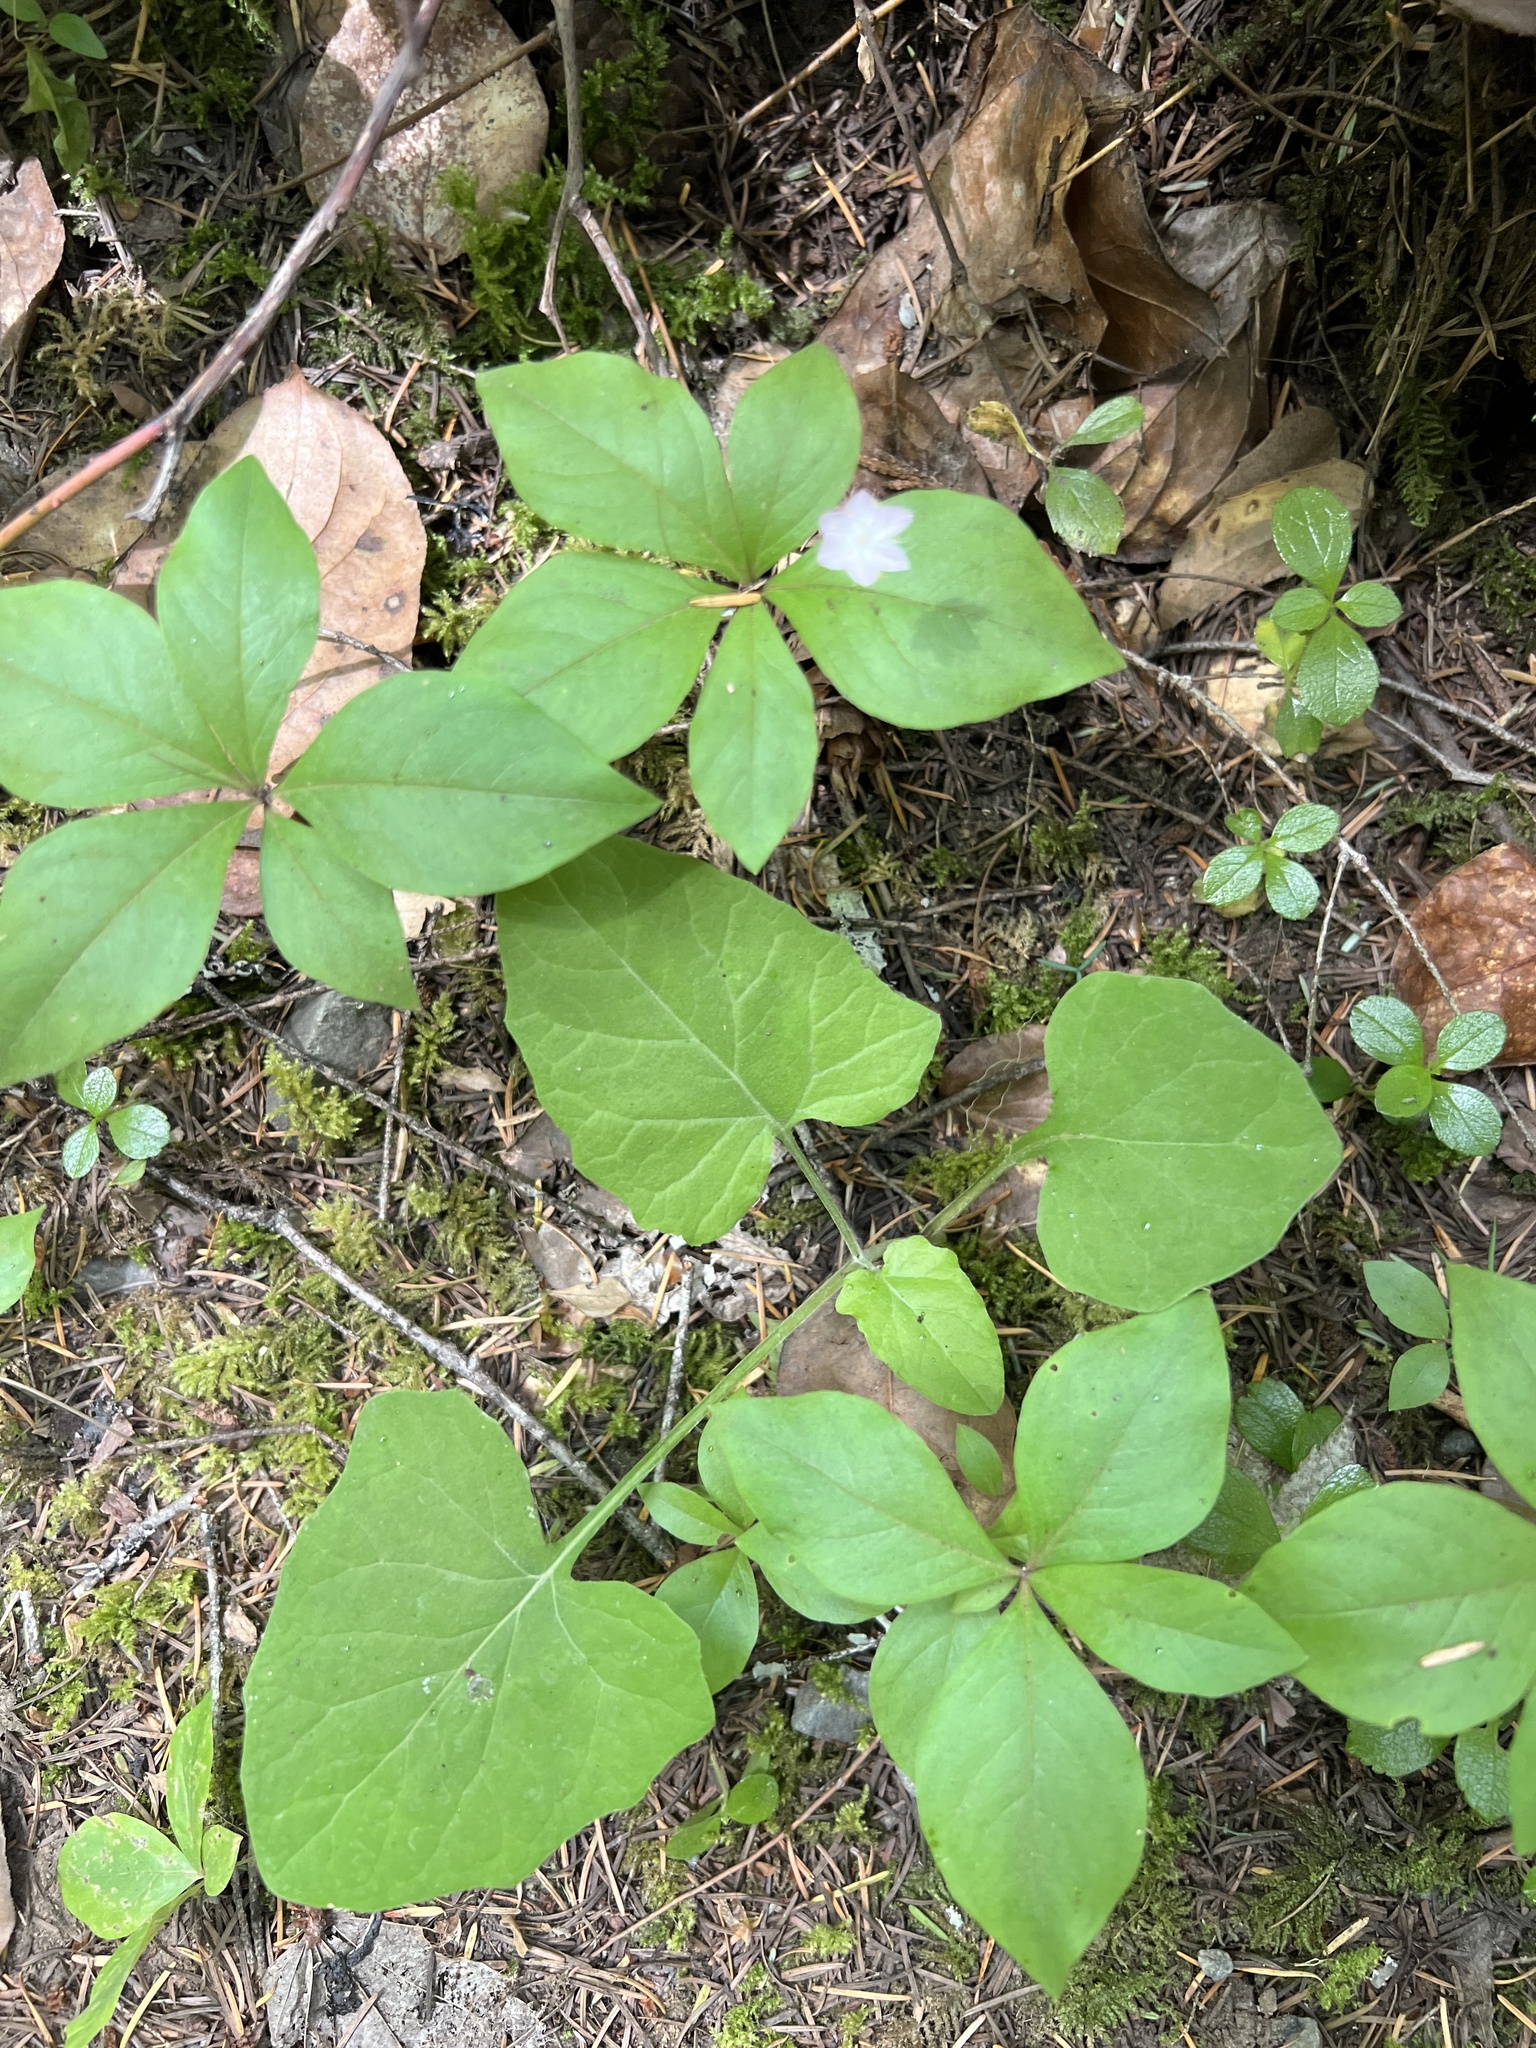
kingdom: Plantae
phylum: Tracheophyta
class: Magnoliopsida
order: Ericales
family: Primulaceae
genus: Lysimachia
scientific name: Lysimachia latifolia
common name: Pacific starflower
